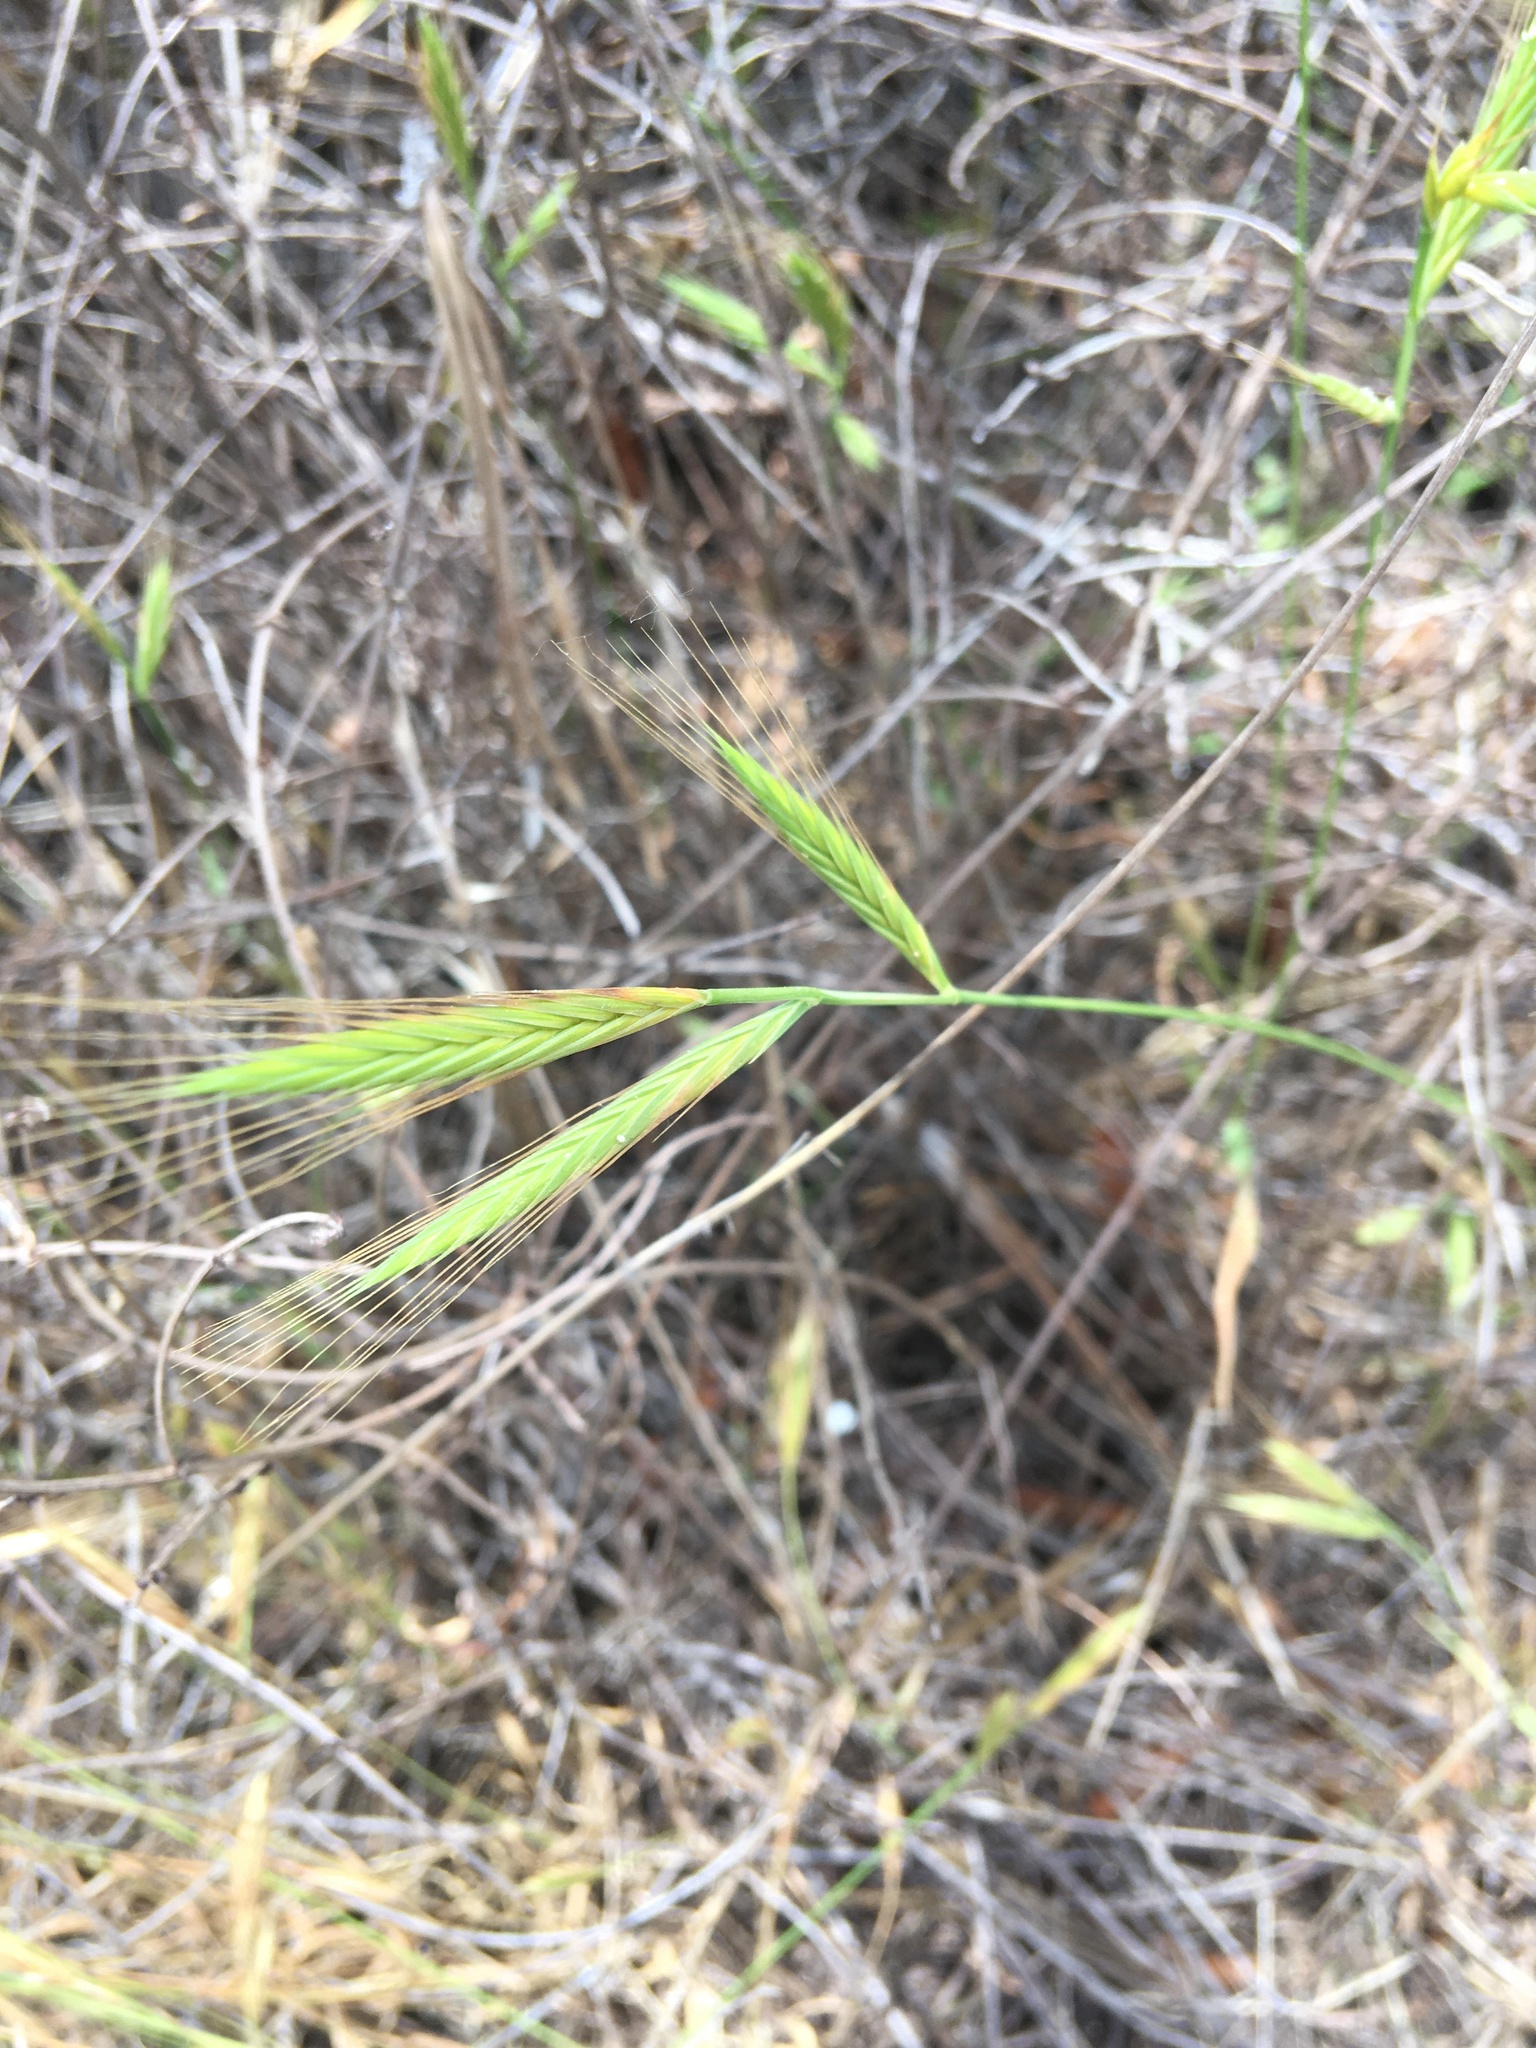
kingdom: Plantae
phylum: Tracheophyta
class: Liliopsida
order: Poales
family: Poaceae
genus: Brachypodium
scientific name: Brachypodium distachyon
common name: Stiff brome
